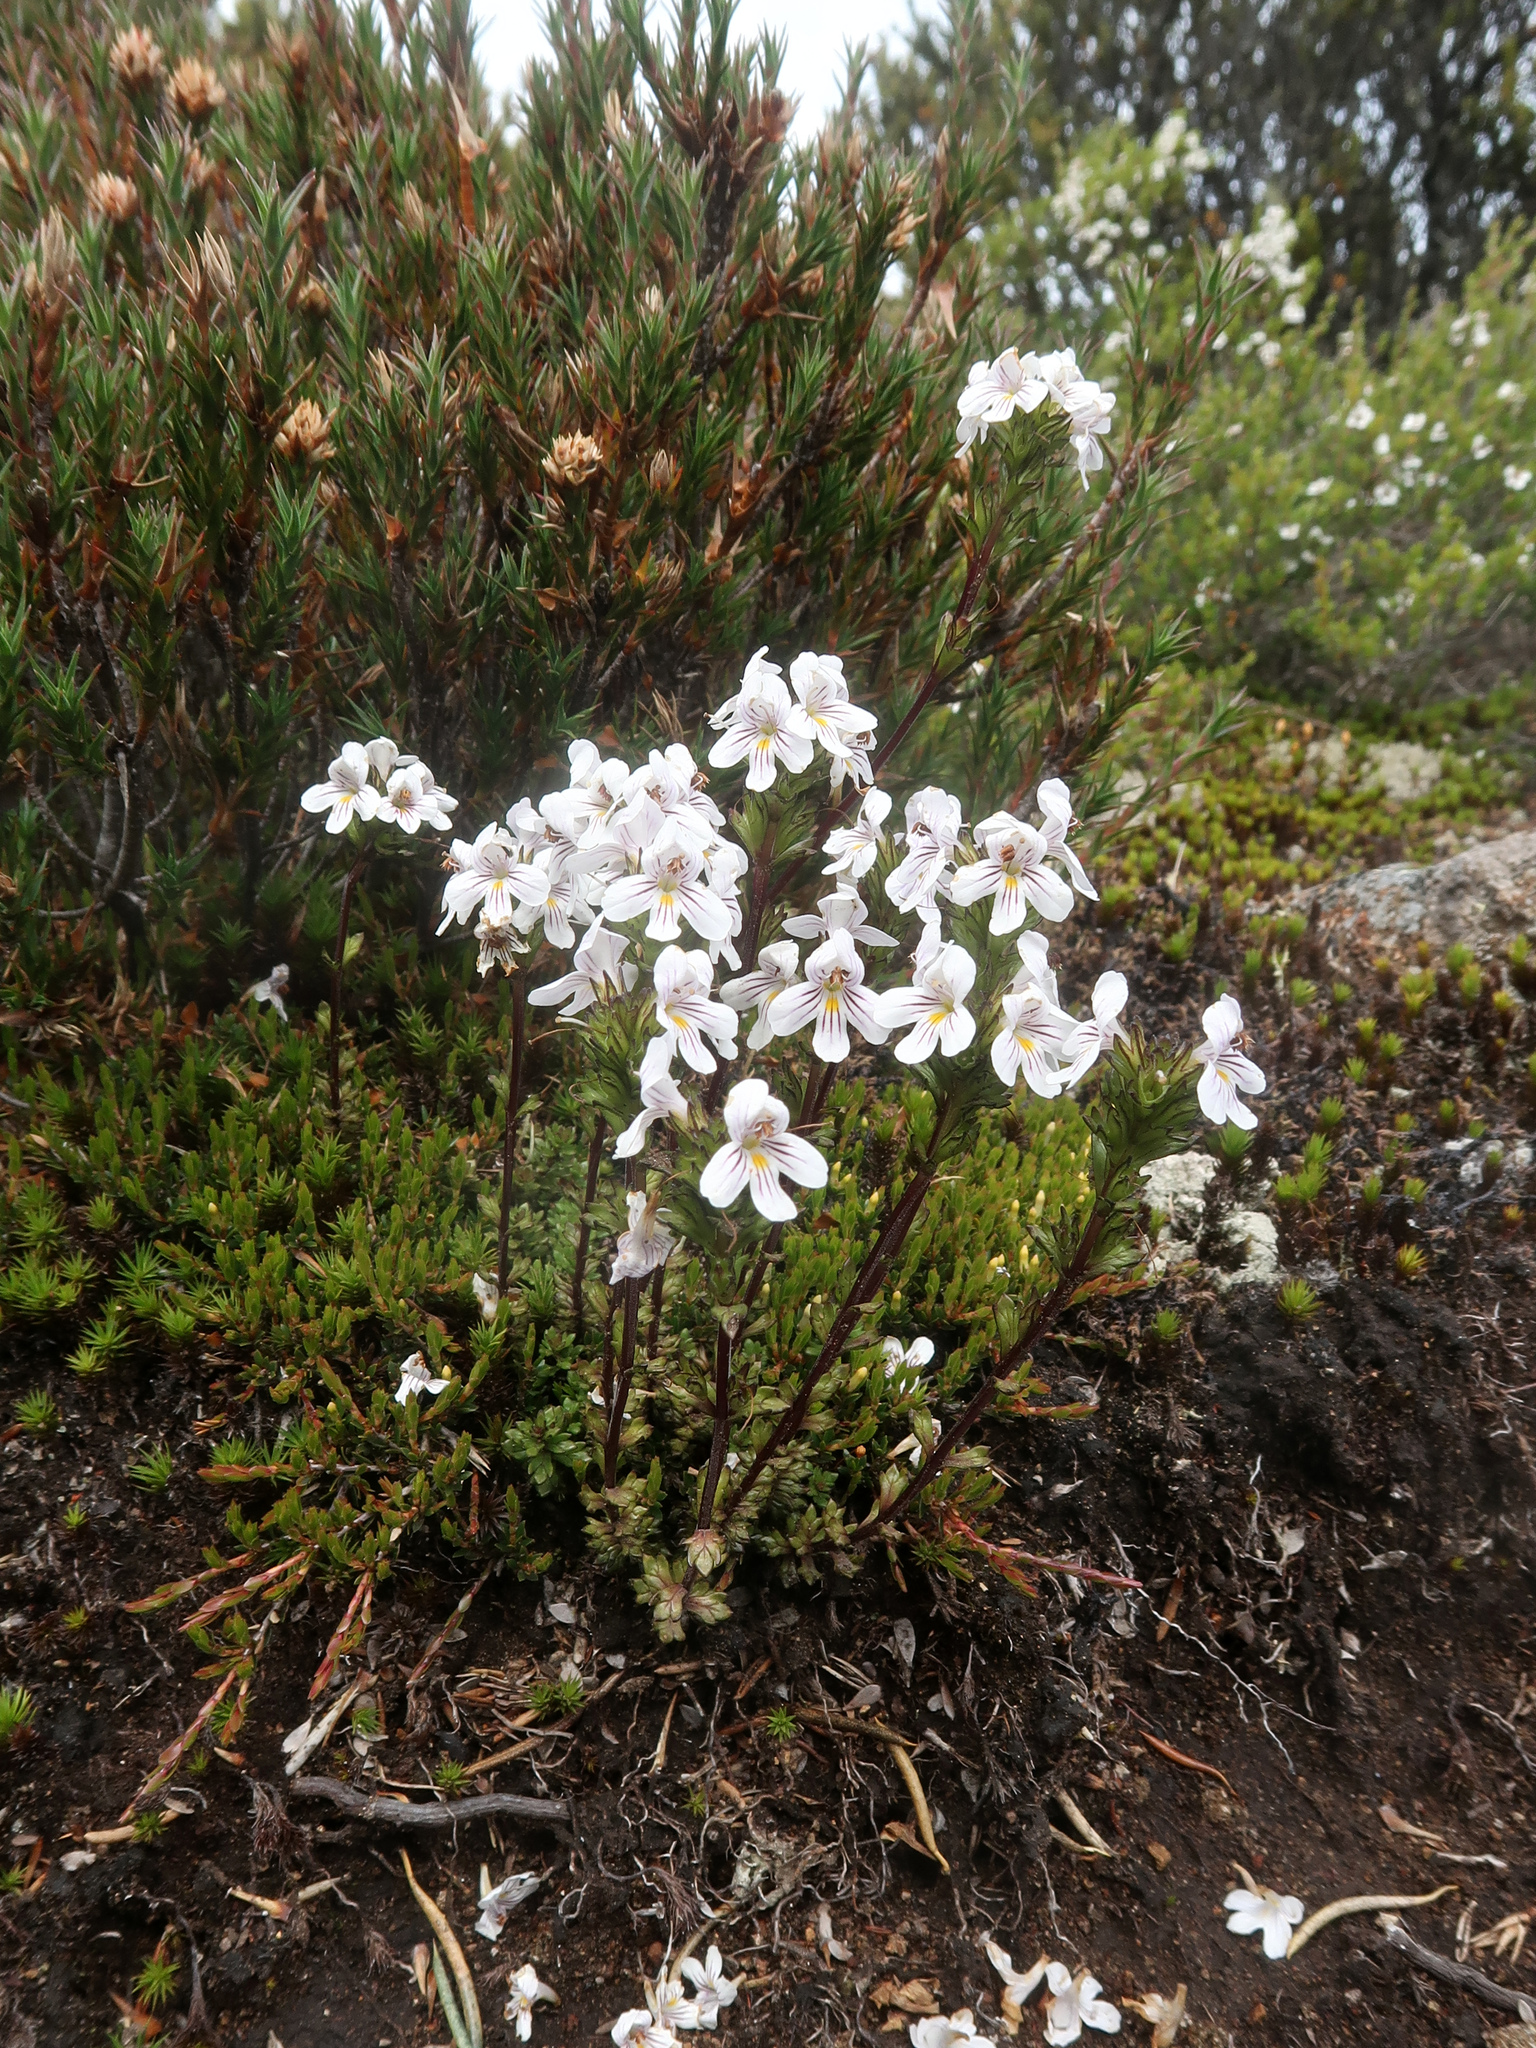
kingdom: Plantae
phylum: Tracheophyta
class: Magnoliopsida
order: Lamiales
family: Orobanchaceae
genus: Euphrasia
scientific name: Euphrasia striata
